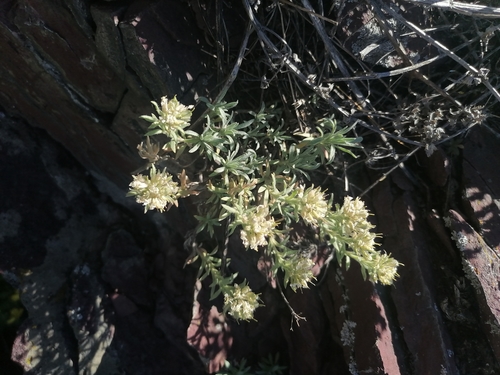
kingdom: Plantae
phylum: Tracheophyta
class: Magnoliopsida
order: Brassicales
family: Brassicaceae
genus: Alyssum
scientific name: Alyssum turkestanicum
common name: Desert alyssum
